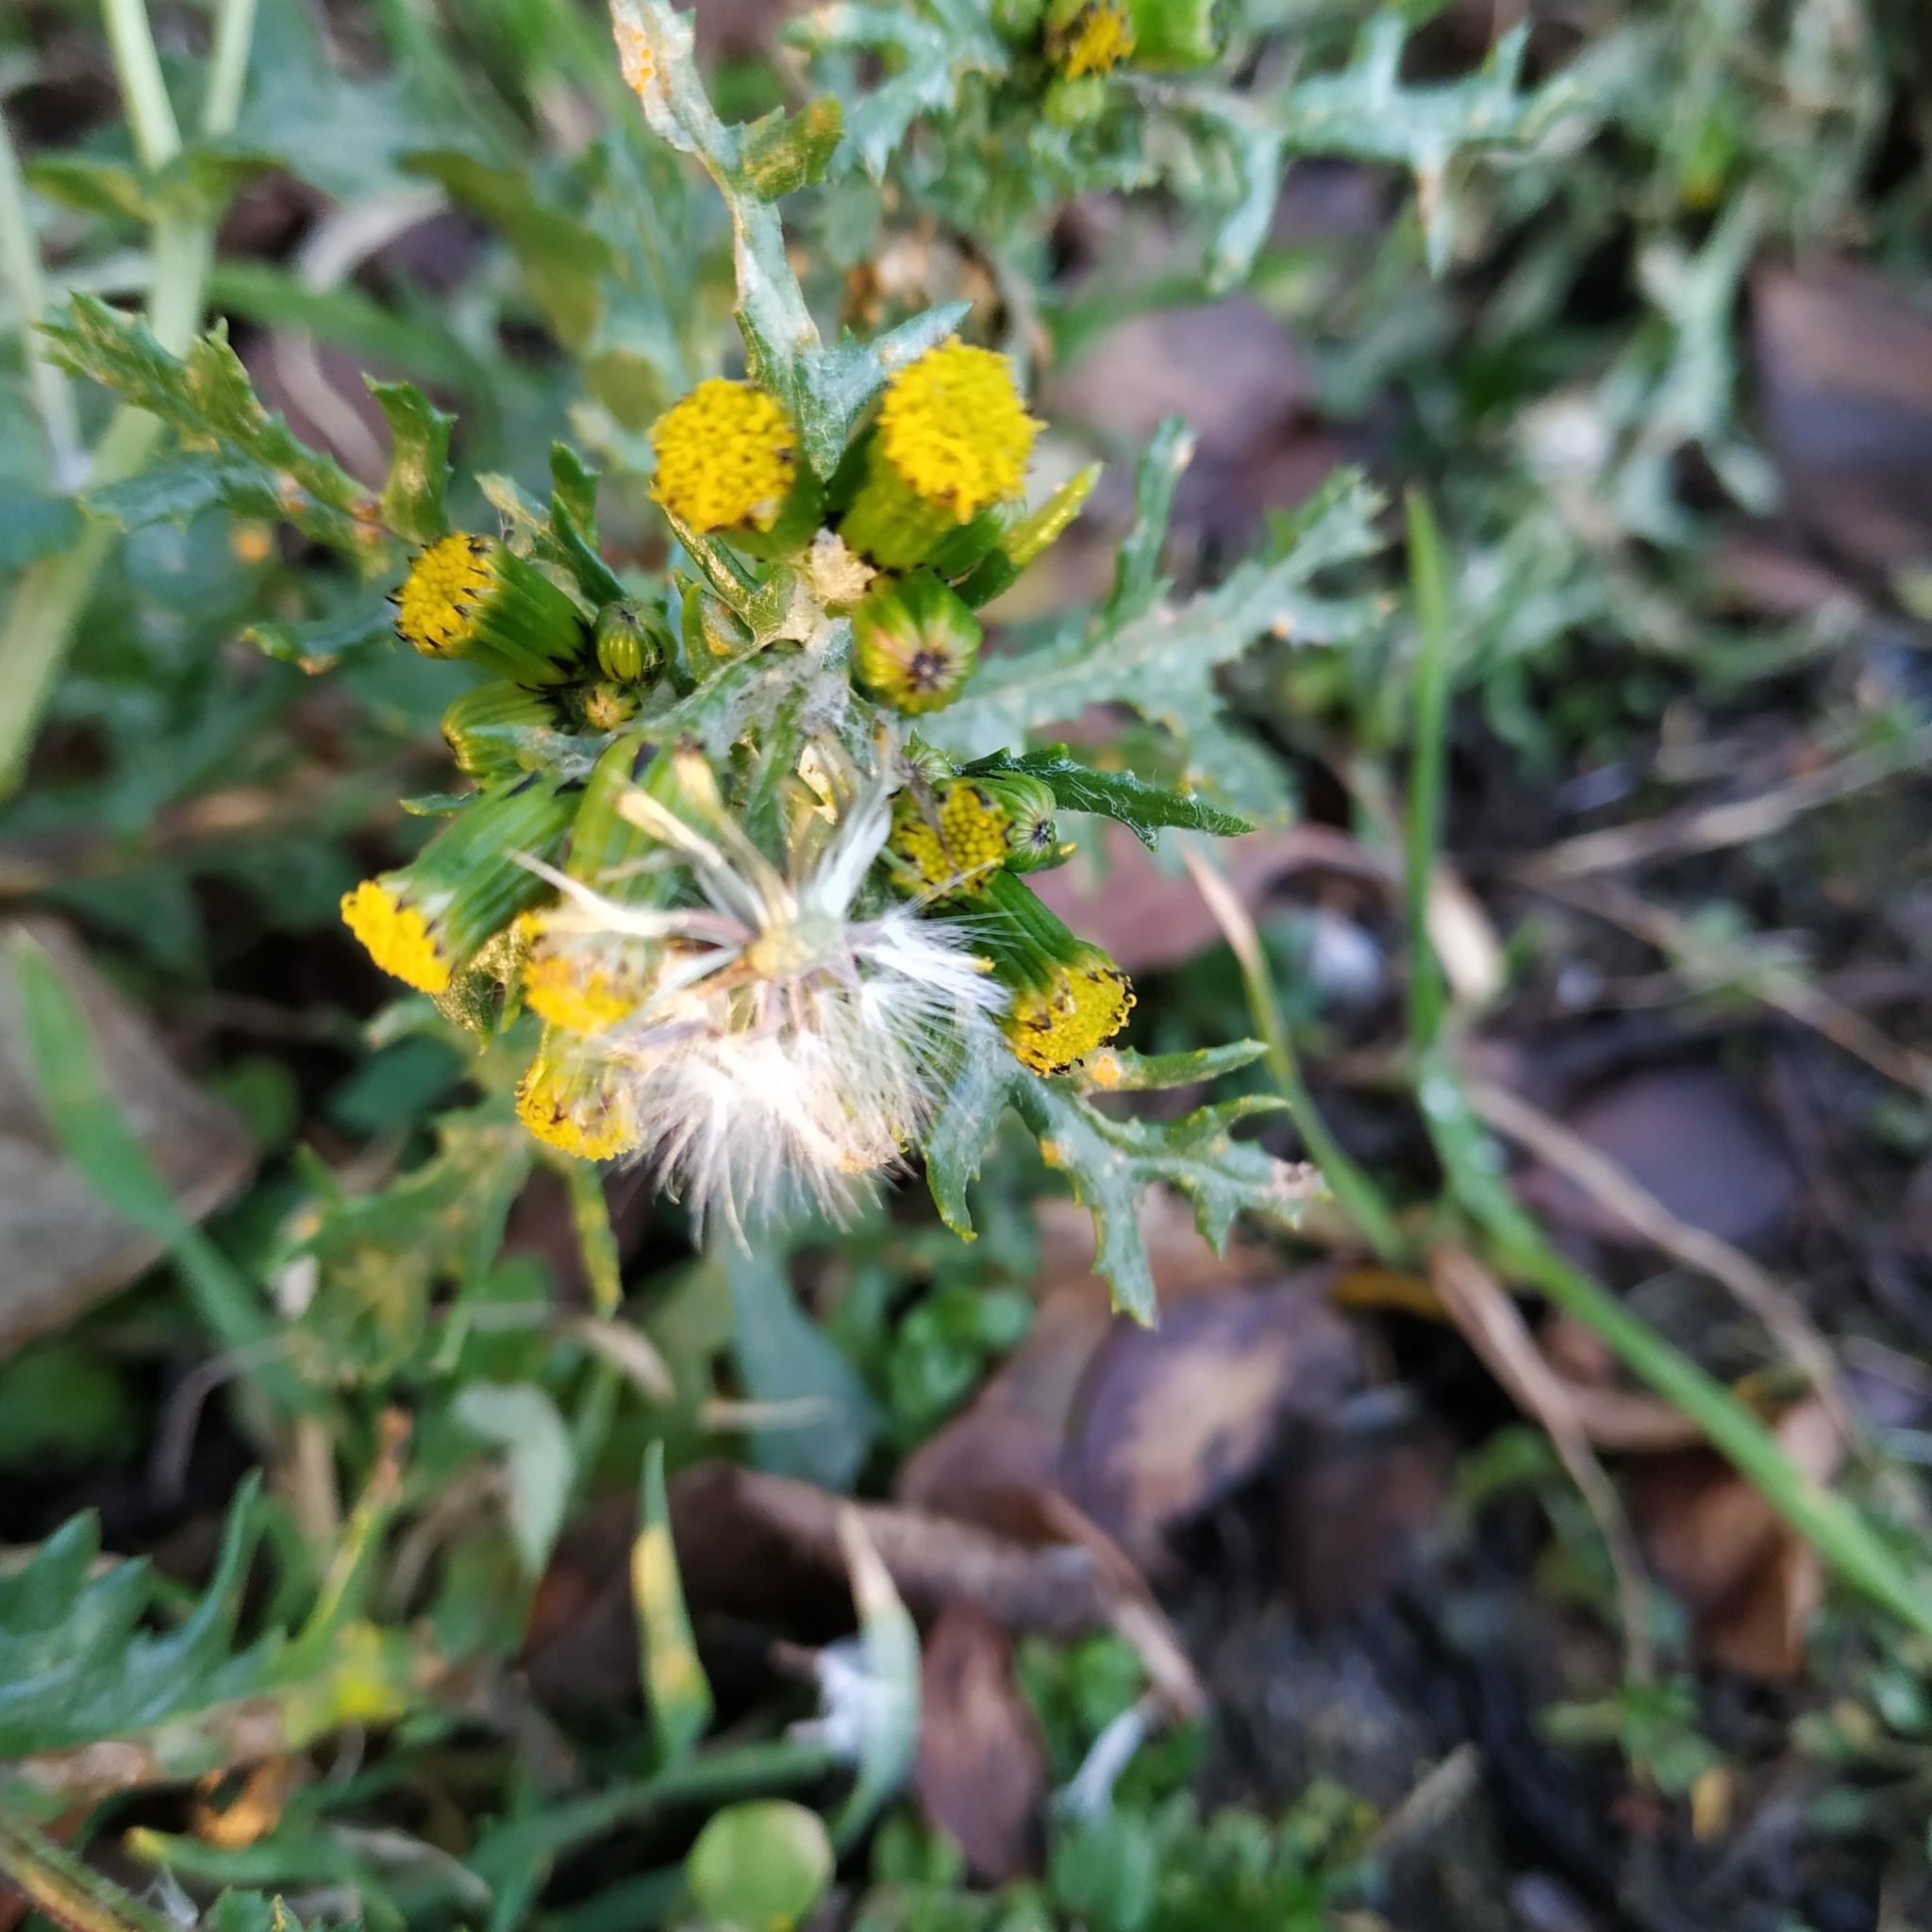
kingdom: Plantae
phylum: Tracheophyta
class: Magnoliopsida
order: Asterales
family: Asteraceae
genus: Senecio
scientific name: Senecio vulgaris
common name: Old-man-in-the-spring
